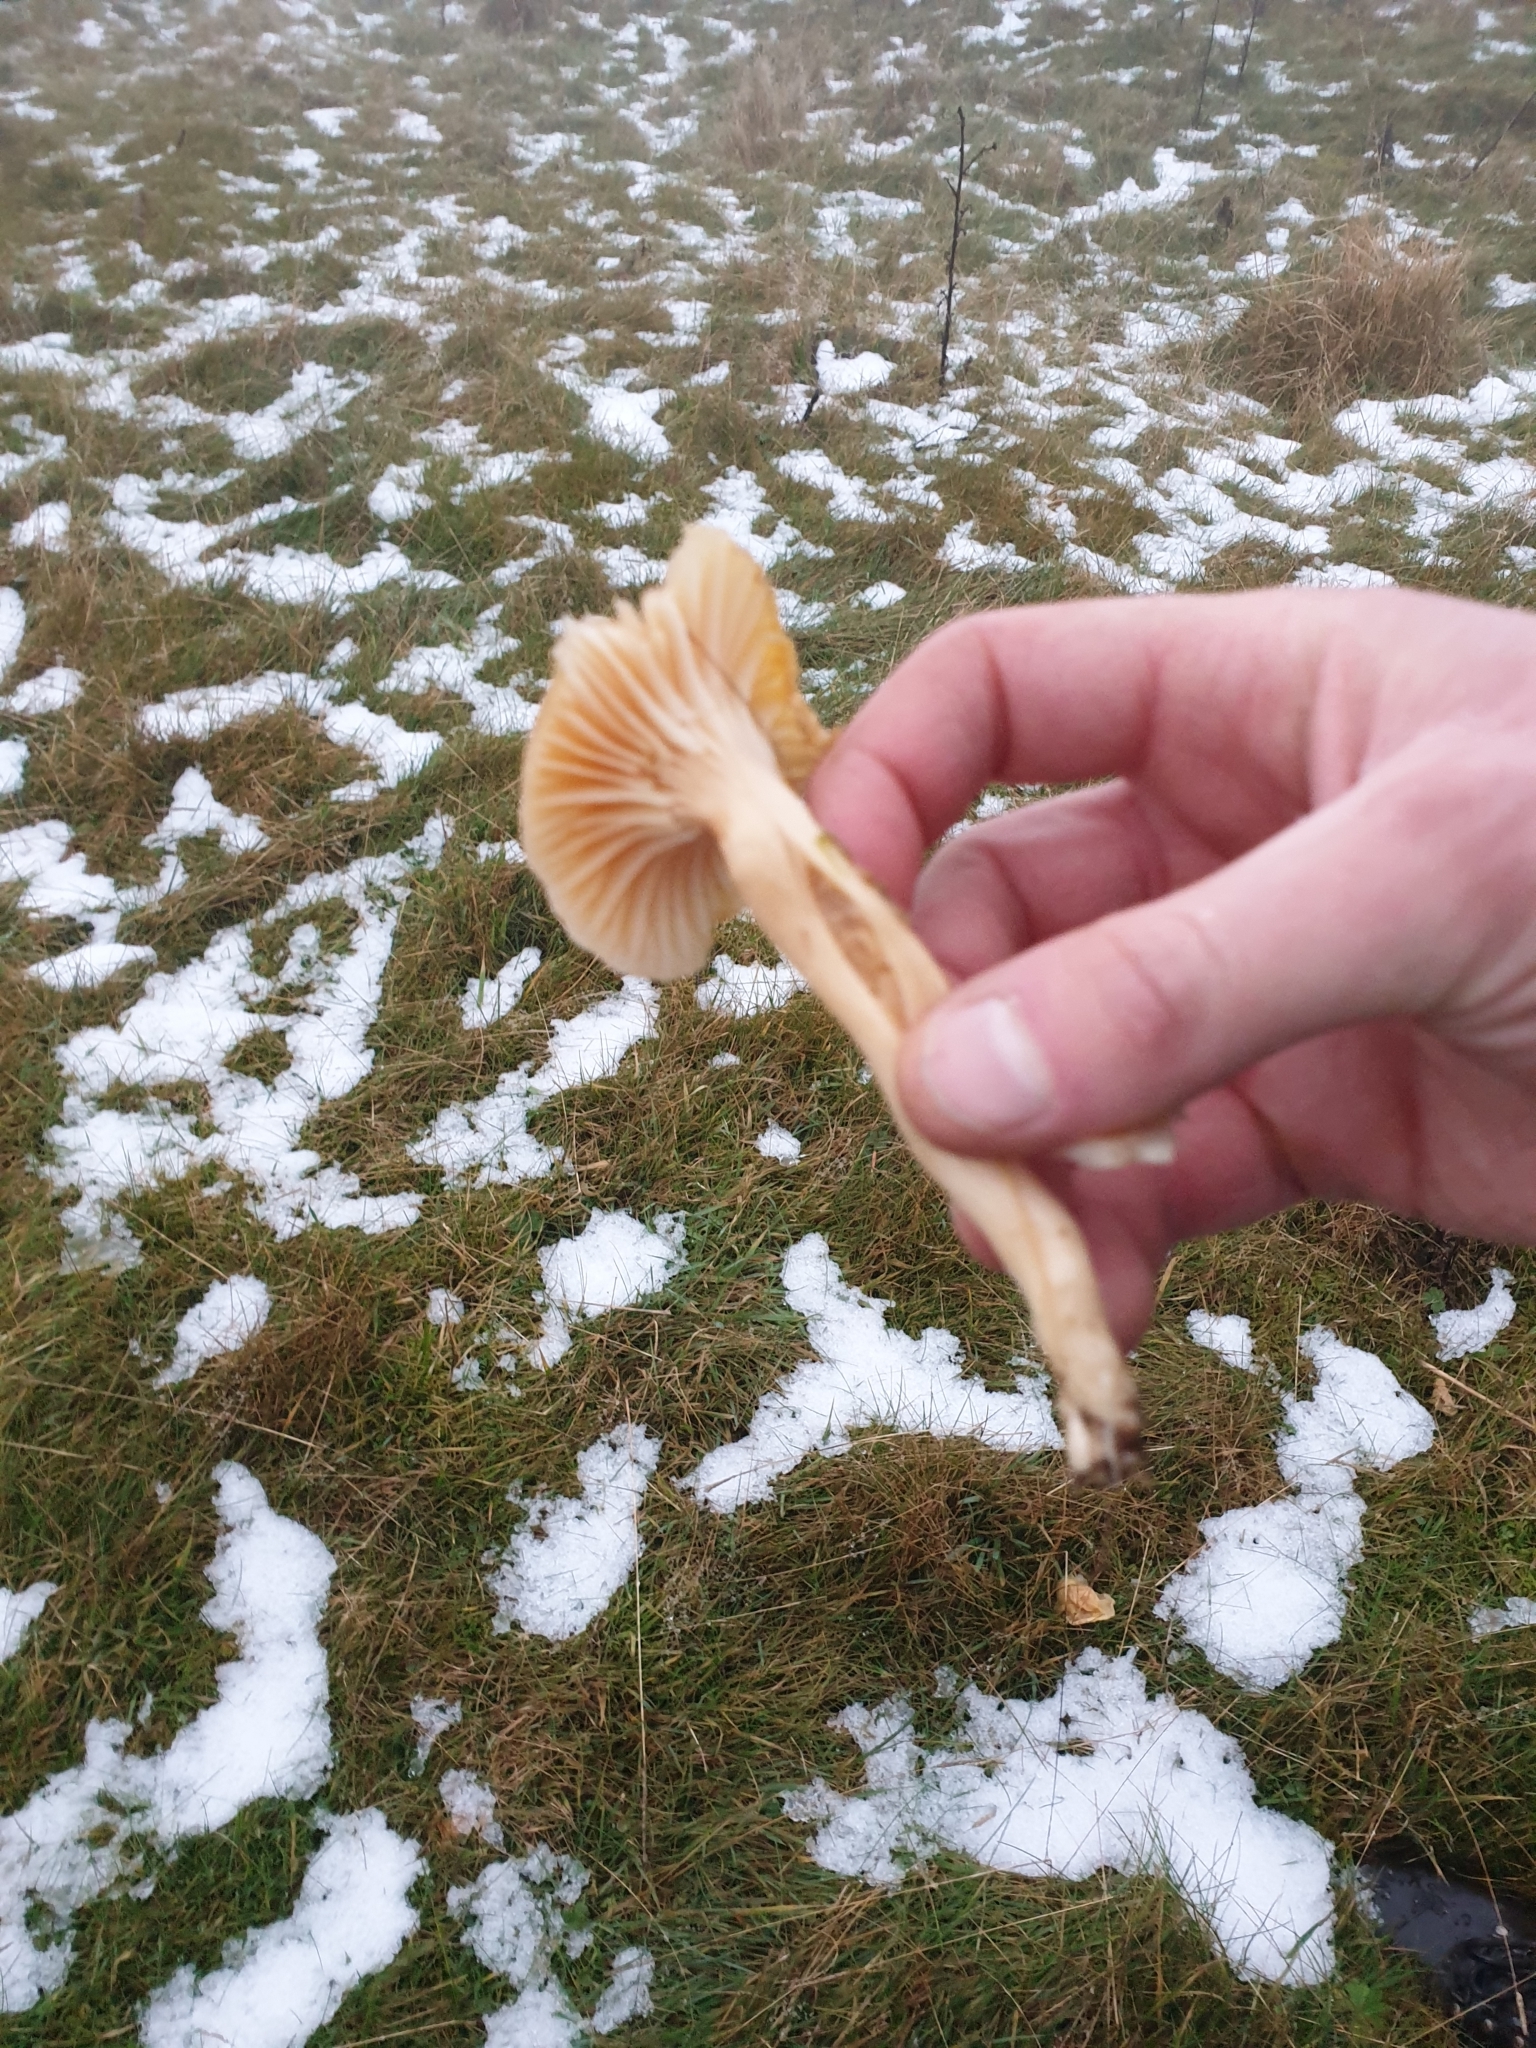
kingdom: Fungi
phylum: Basidiomycota
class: Agaricomycetes
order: Agaricales
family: Hygrophoraceae
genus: Cuphophyllus
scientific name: Cuphophyllus pratensis
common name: Meadow waxcap
